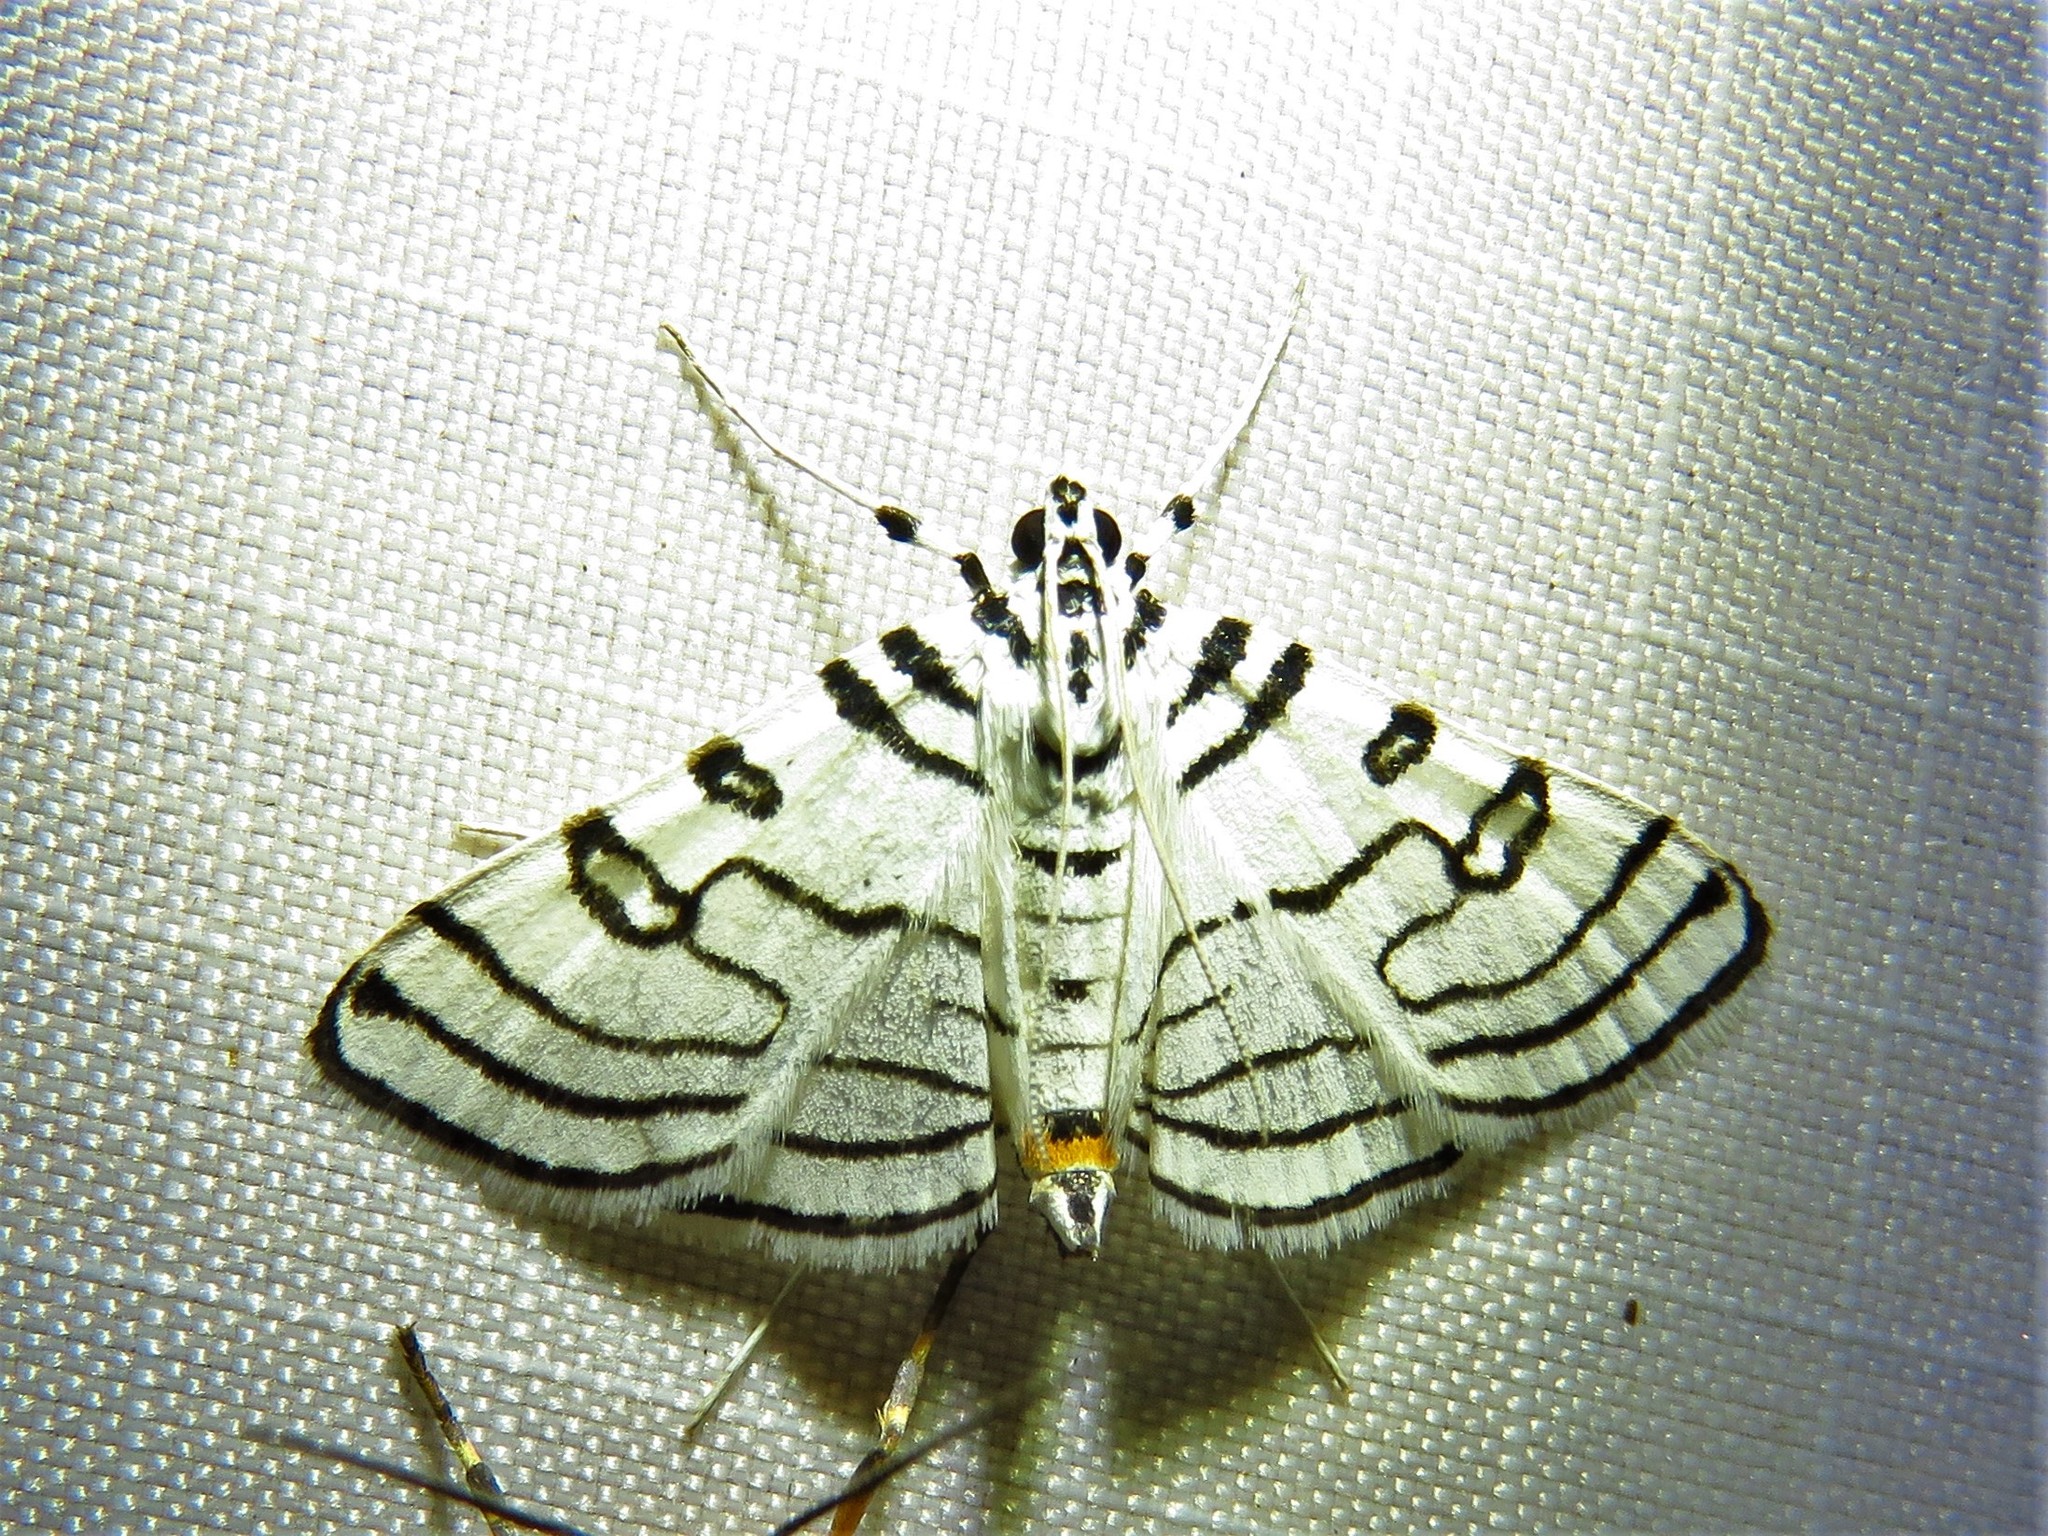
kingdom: Animalia
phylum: Arthropoda
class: Insecta
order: Lepidoptera
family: Crambidae
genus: Conchylodes
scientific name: Conchylodes concinnalis
